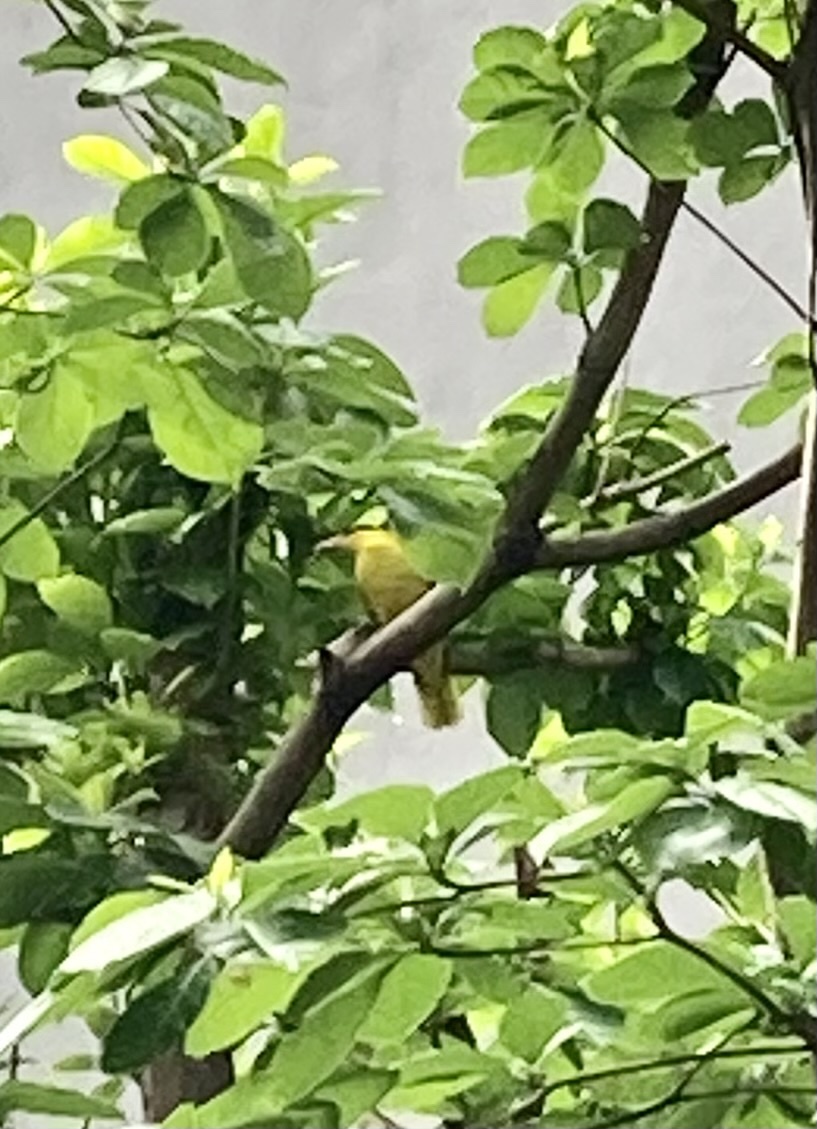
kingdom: Animalia
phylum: Chordata
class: Aves
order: Passeriformes
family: Oriolidae
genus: Oriolus
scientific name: Oriolus chinensis
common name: Black-naped oriole
